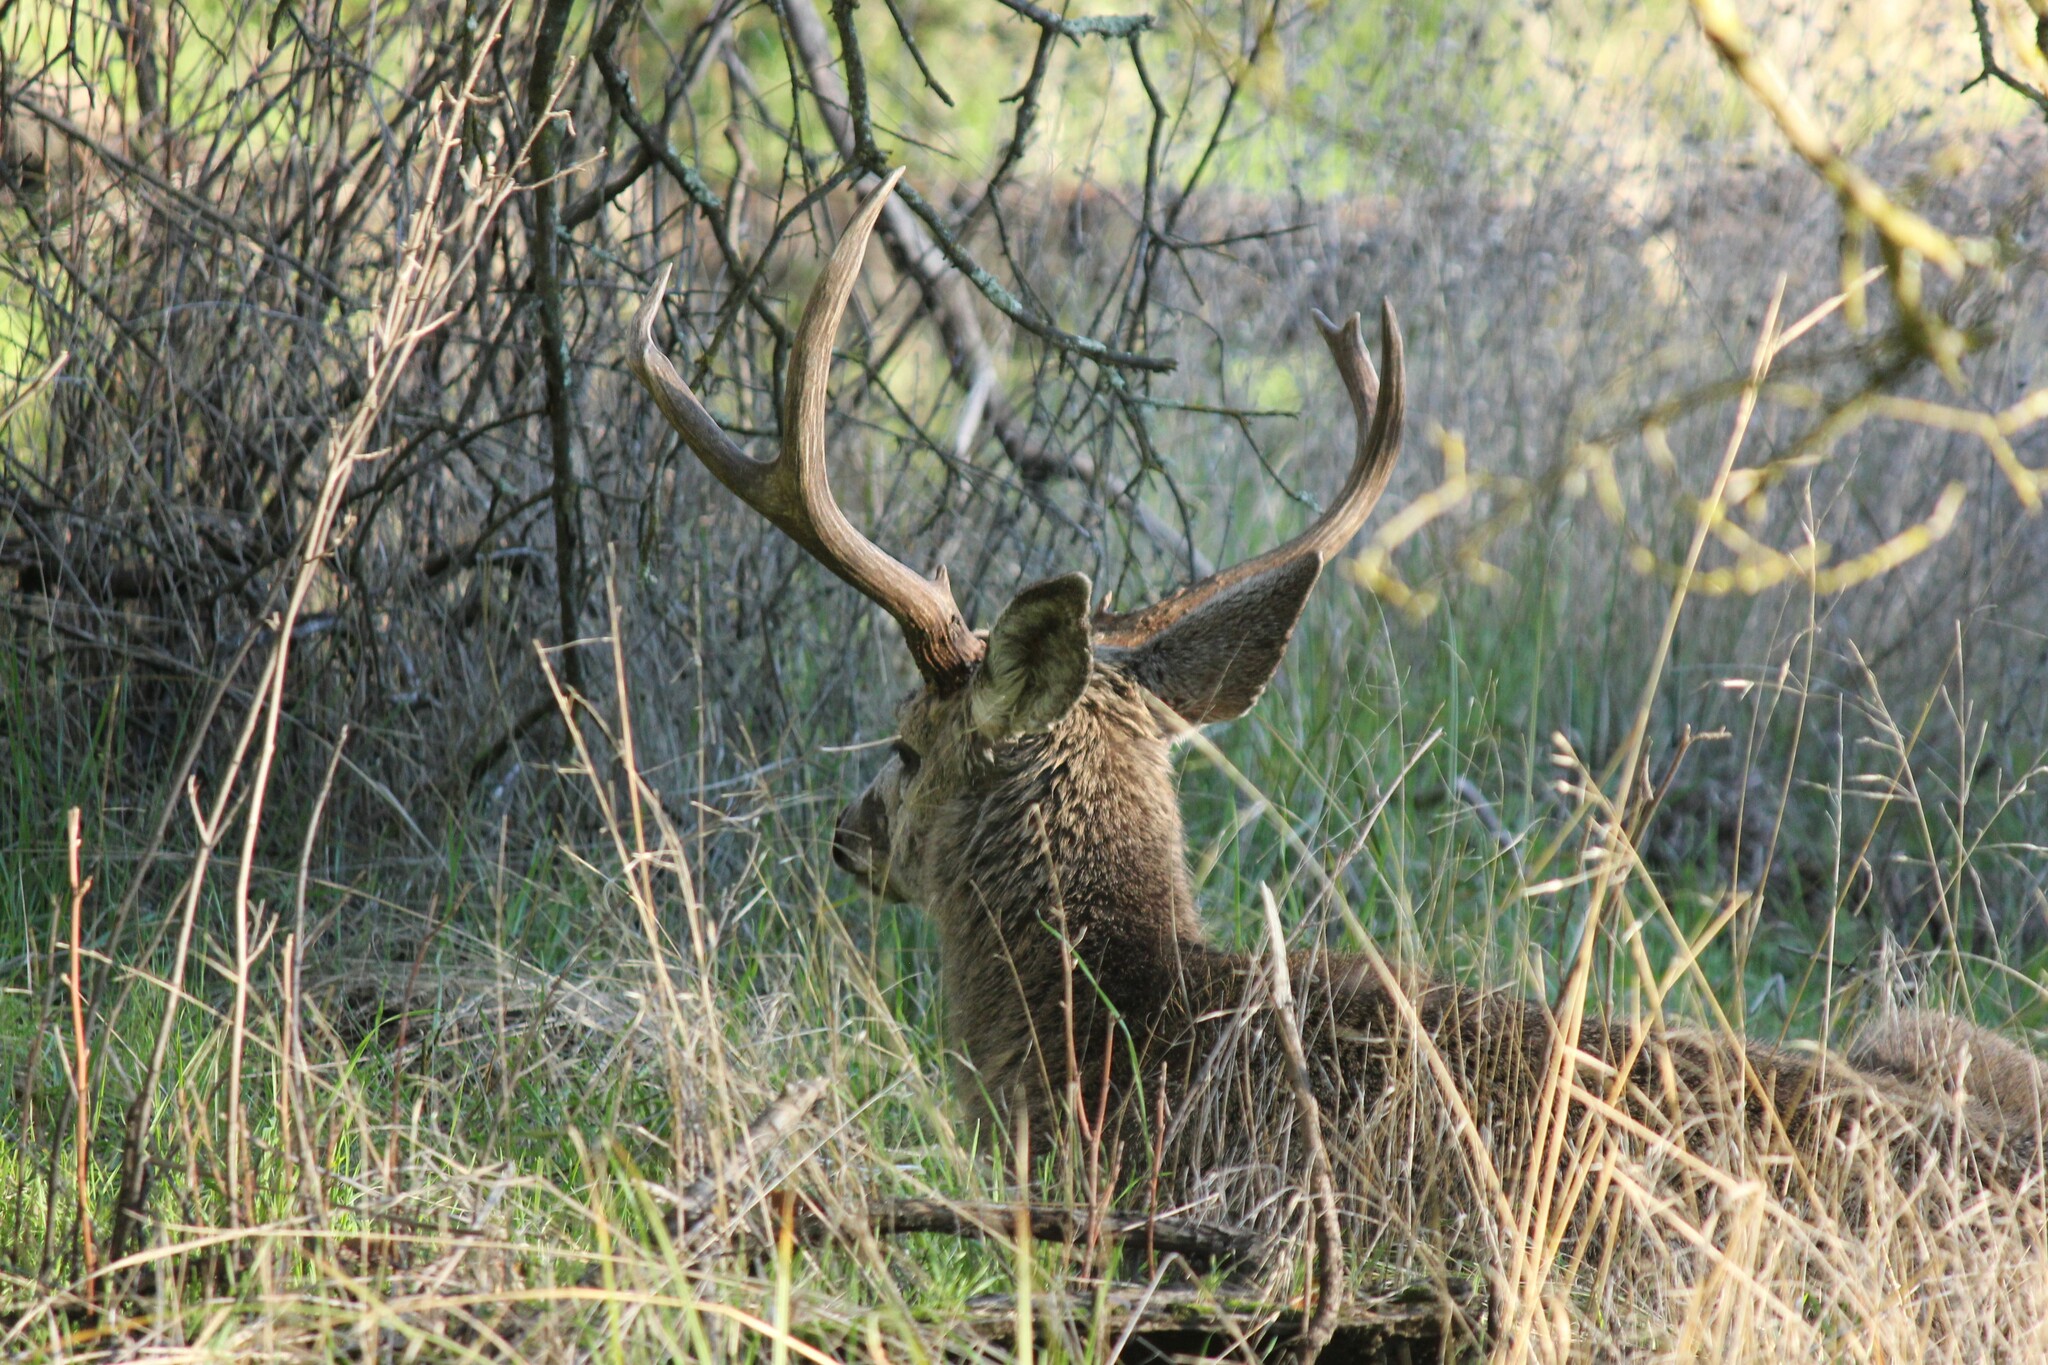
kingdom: Animalia
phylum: Chordata
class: Mammalia
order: Artiodactyla
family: Cervidae
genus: Odocoileus
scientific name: Odocoileus hemionus
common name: Mule deer
